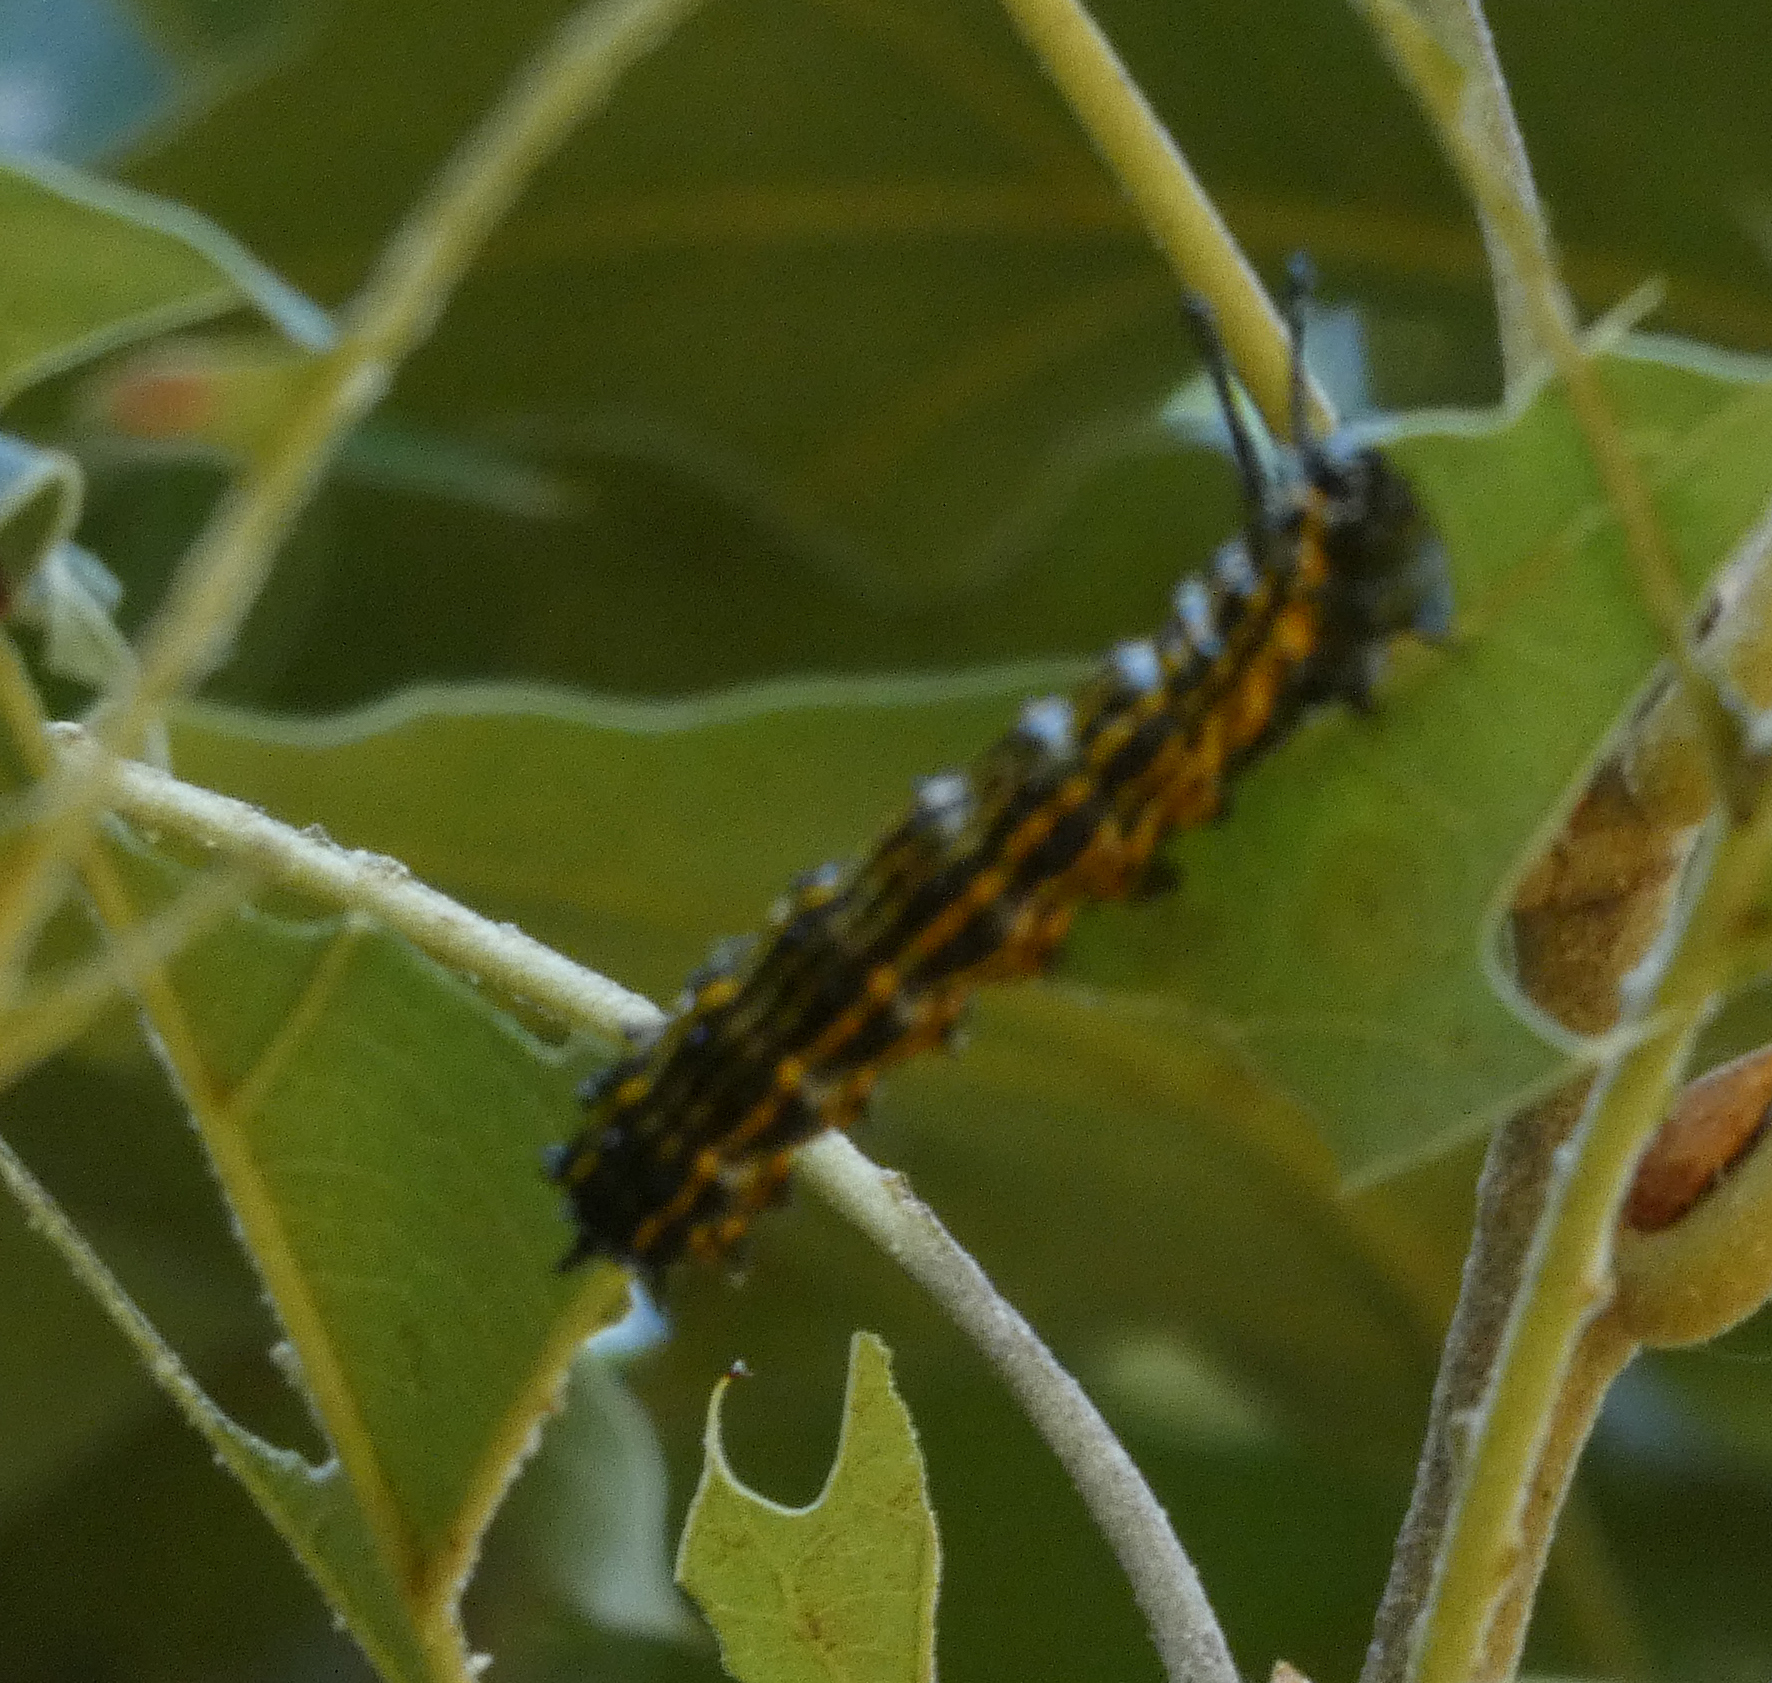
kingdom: Animalia
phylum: Arthropoda
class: Insecta
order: Lepidoptera
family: Saturniidae
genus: Anisota
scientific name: Anisota senatoria
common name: Orange-striped oakworm moth
